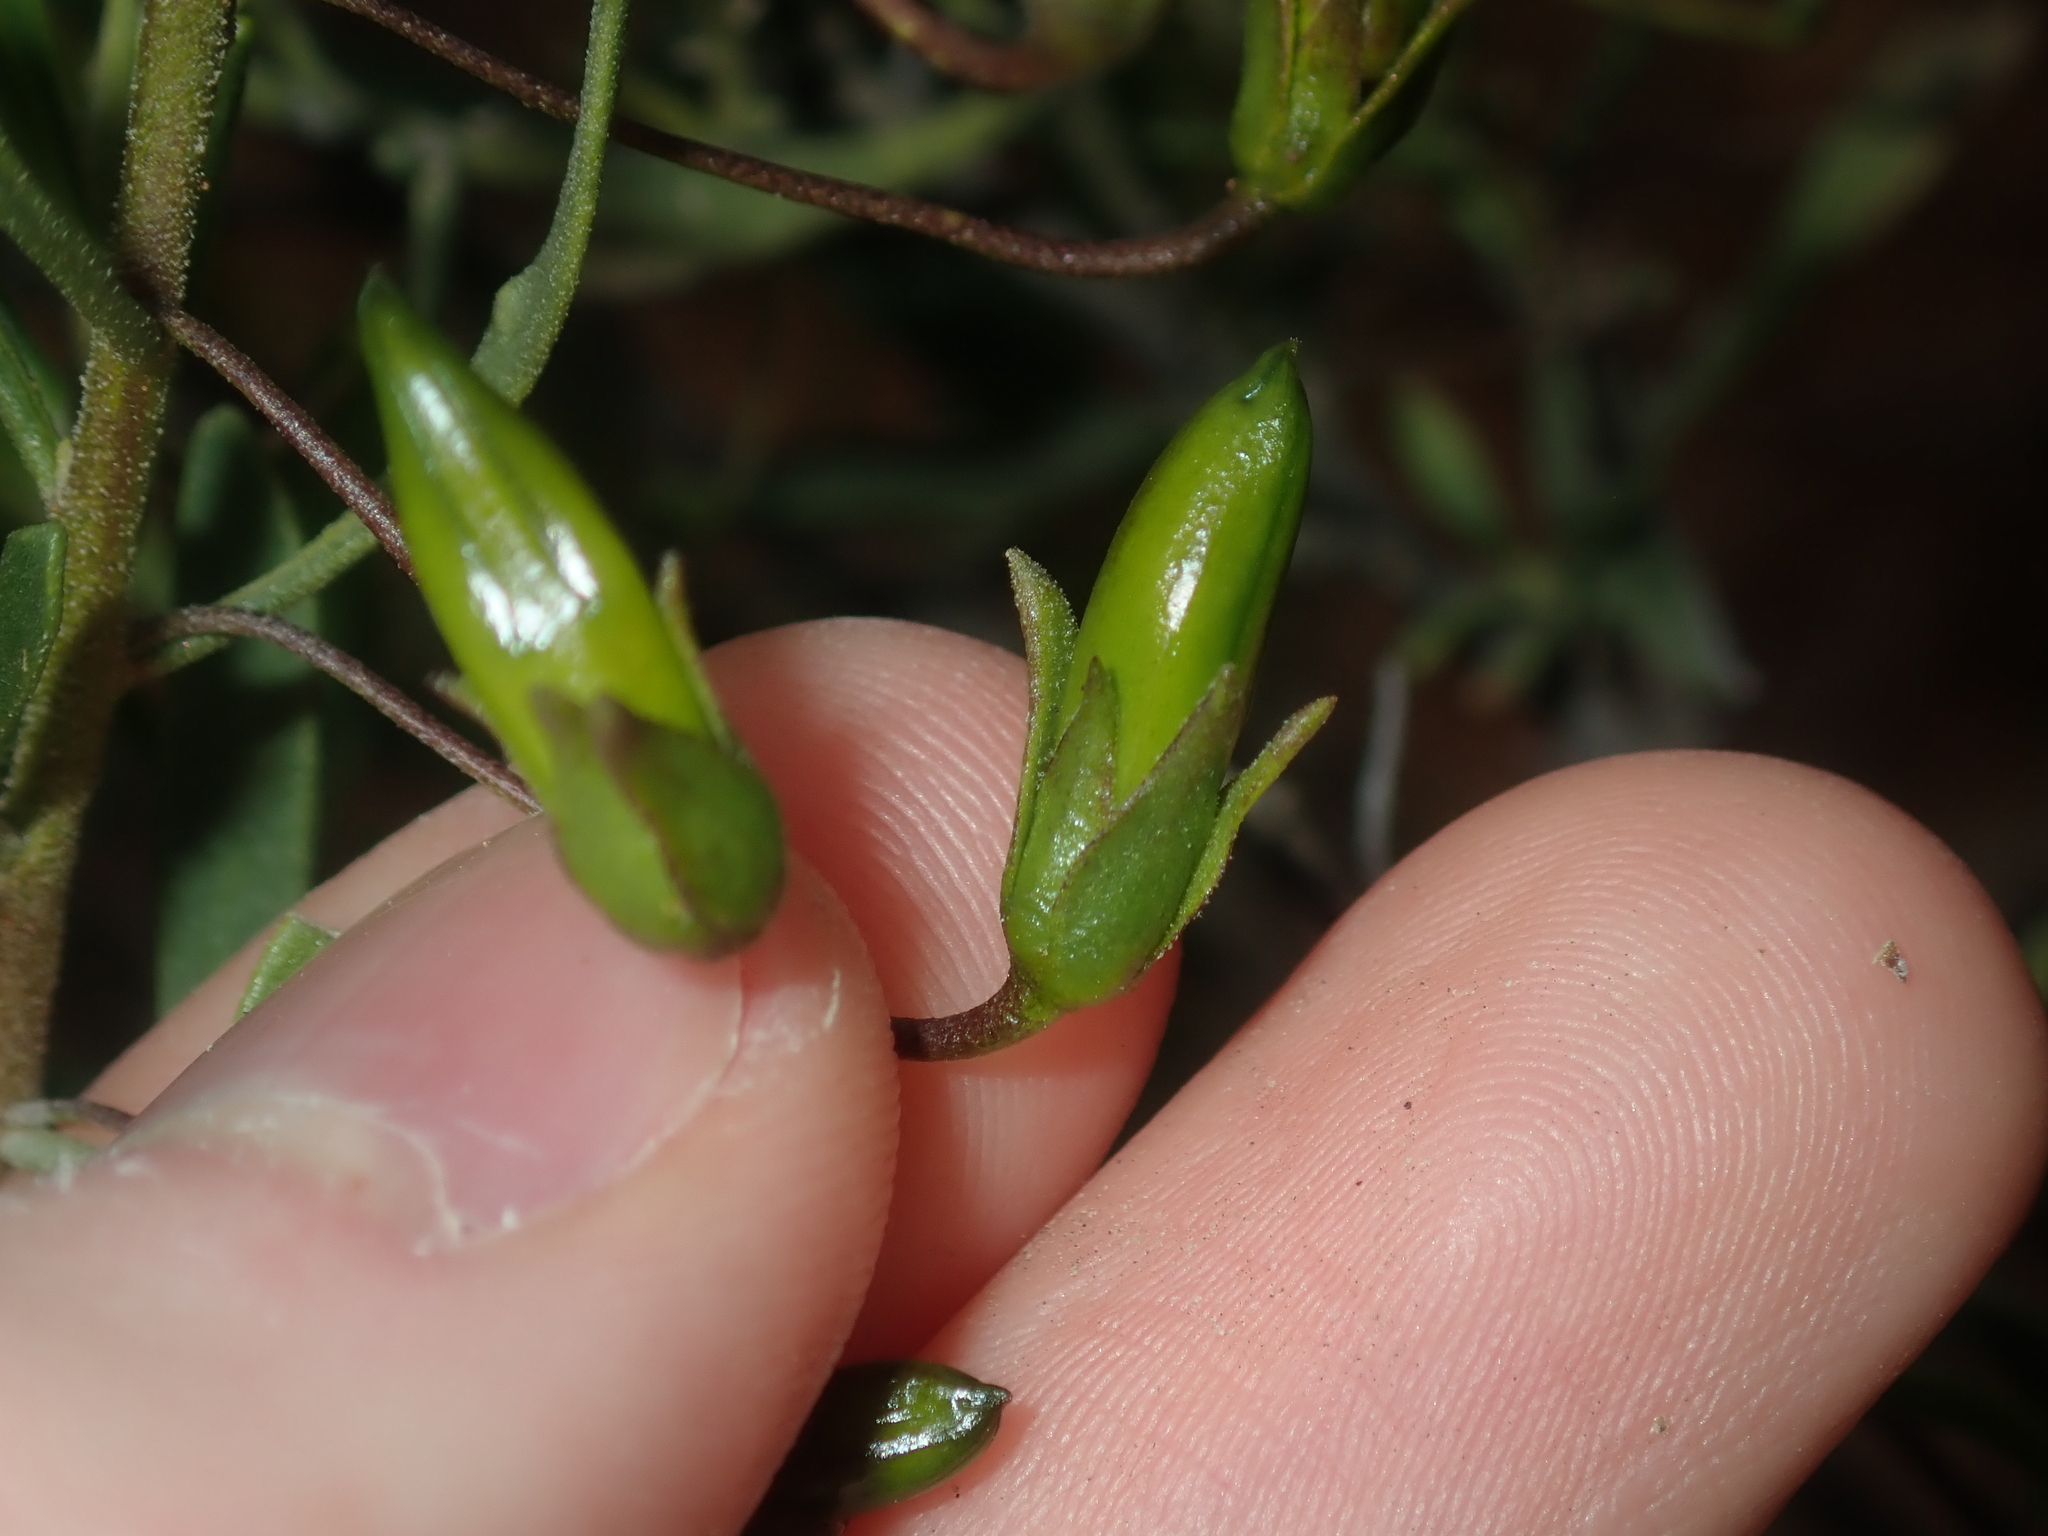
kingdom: Plantae
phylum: Tracheophyta
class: Magnoliopsida
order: Lamiales
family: Scrophulariaceae
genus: Eremophila
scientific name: Eremophila decipiens
